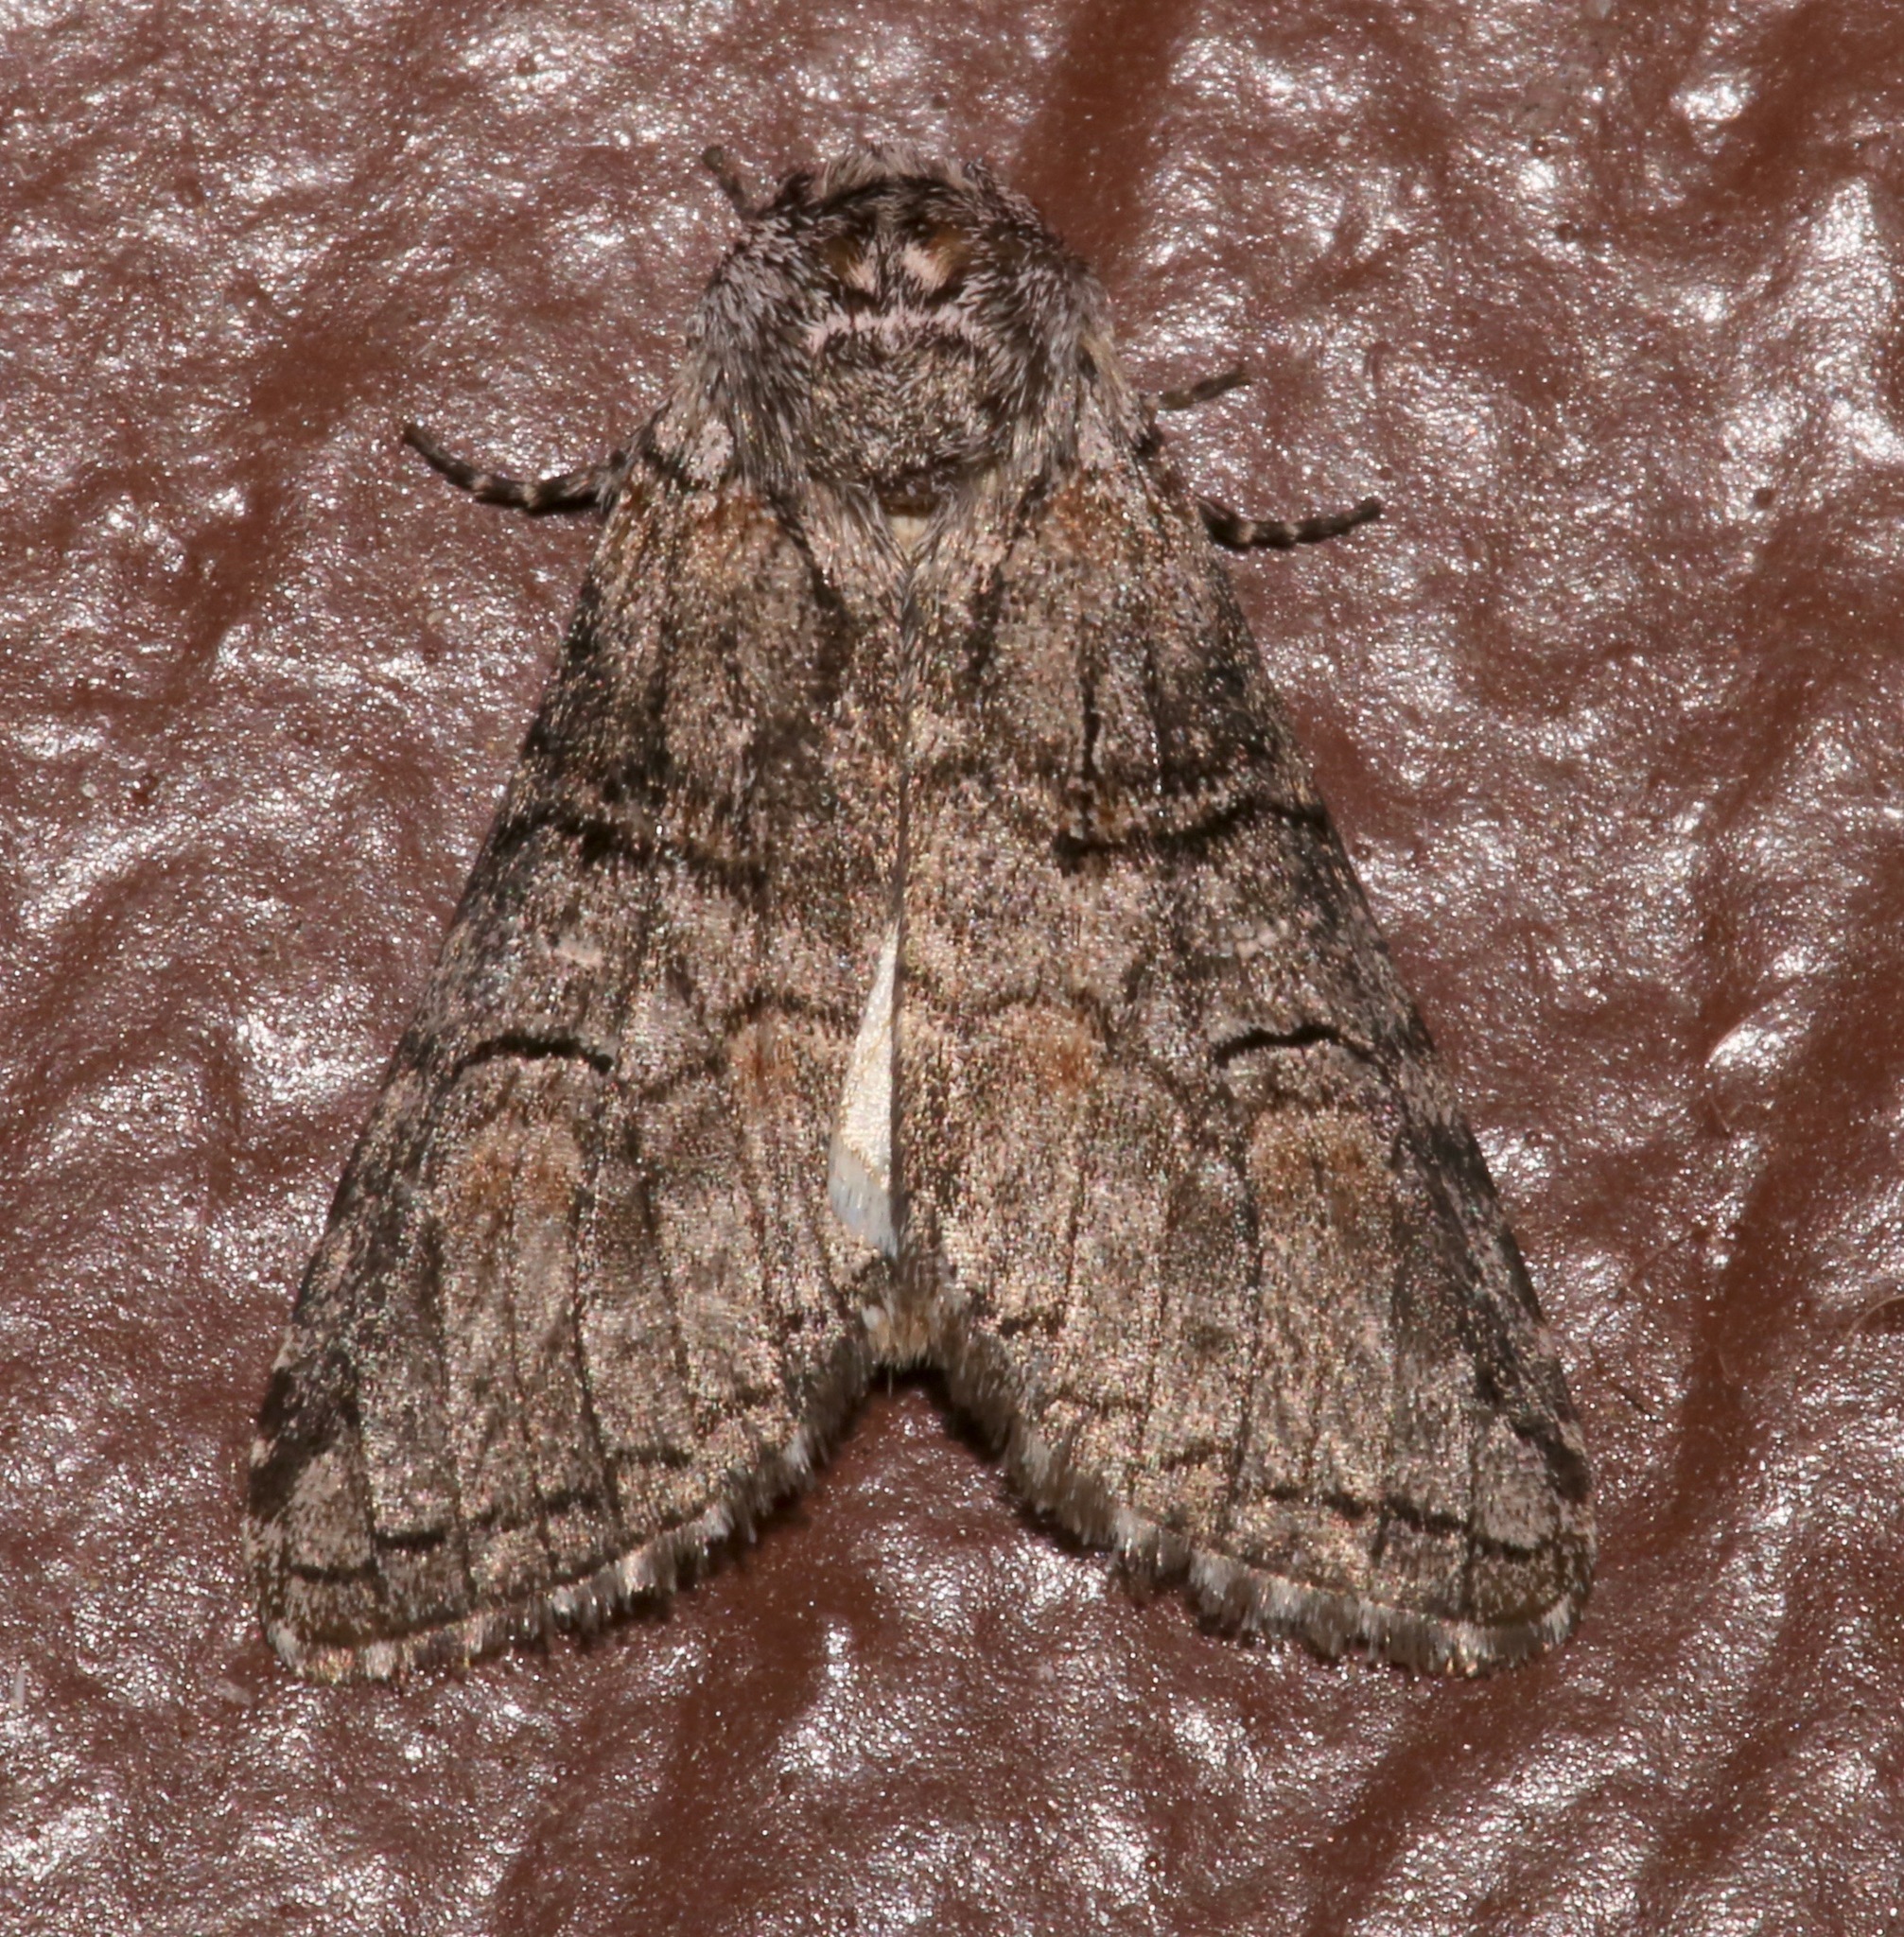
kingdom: Animalia
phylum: Arthropoda
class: Insecta
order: Lepidoptera
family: Notodontidae
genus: Afilia
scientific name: Afilia oslari
